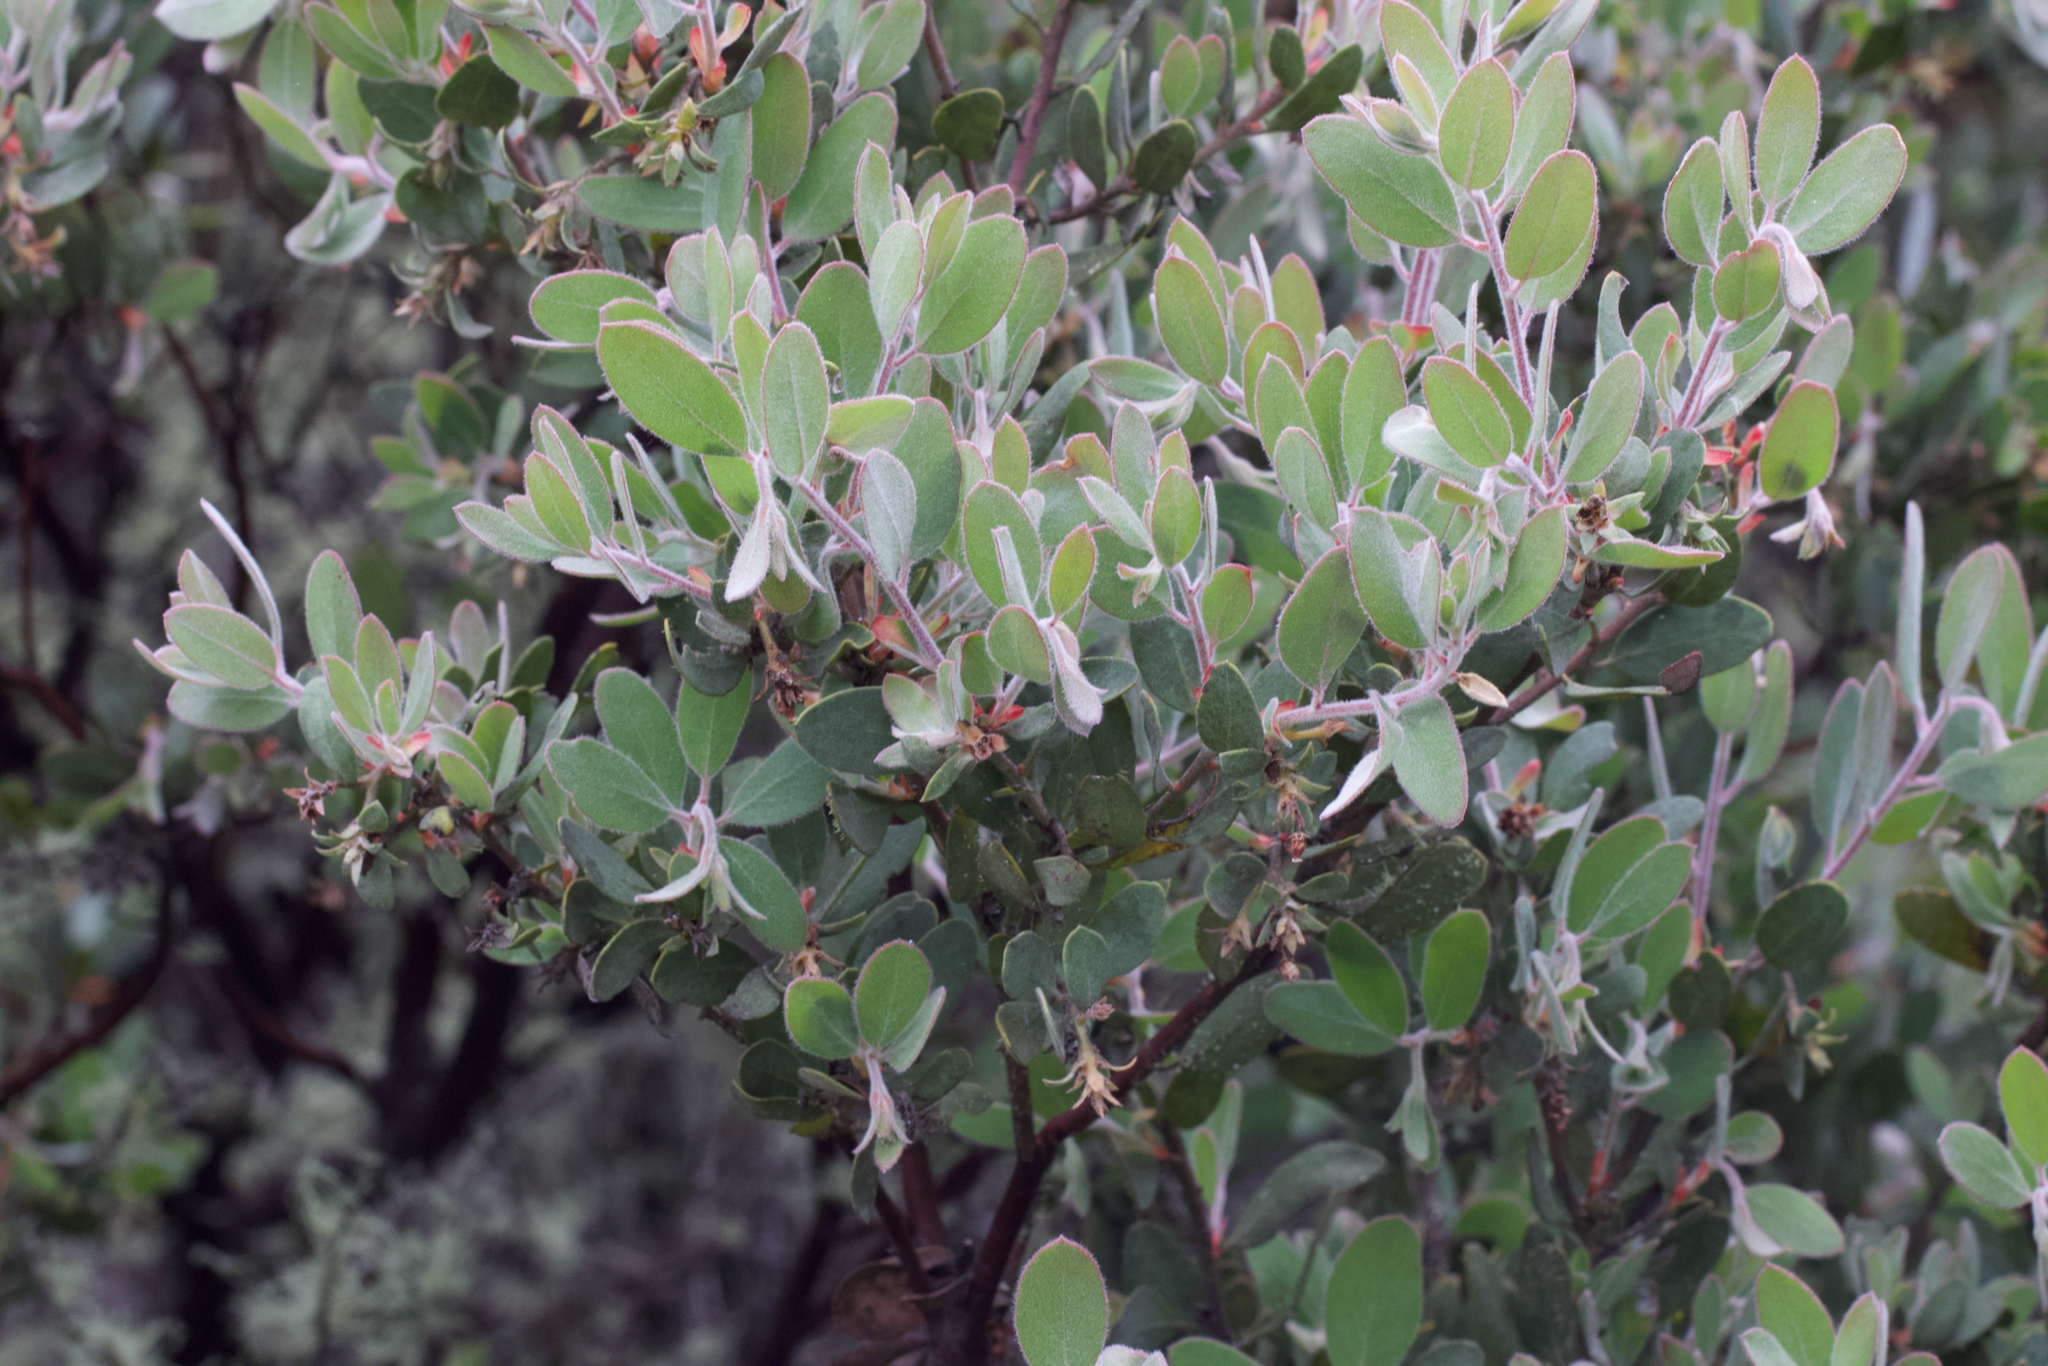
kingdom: Plantae
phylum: Tracheophyta
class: Magnoliopsida
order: Ericales
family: Ericaceae
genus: Arctostaphylos
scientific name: Arctostaphylos silvicola
